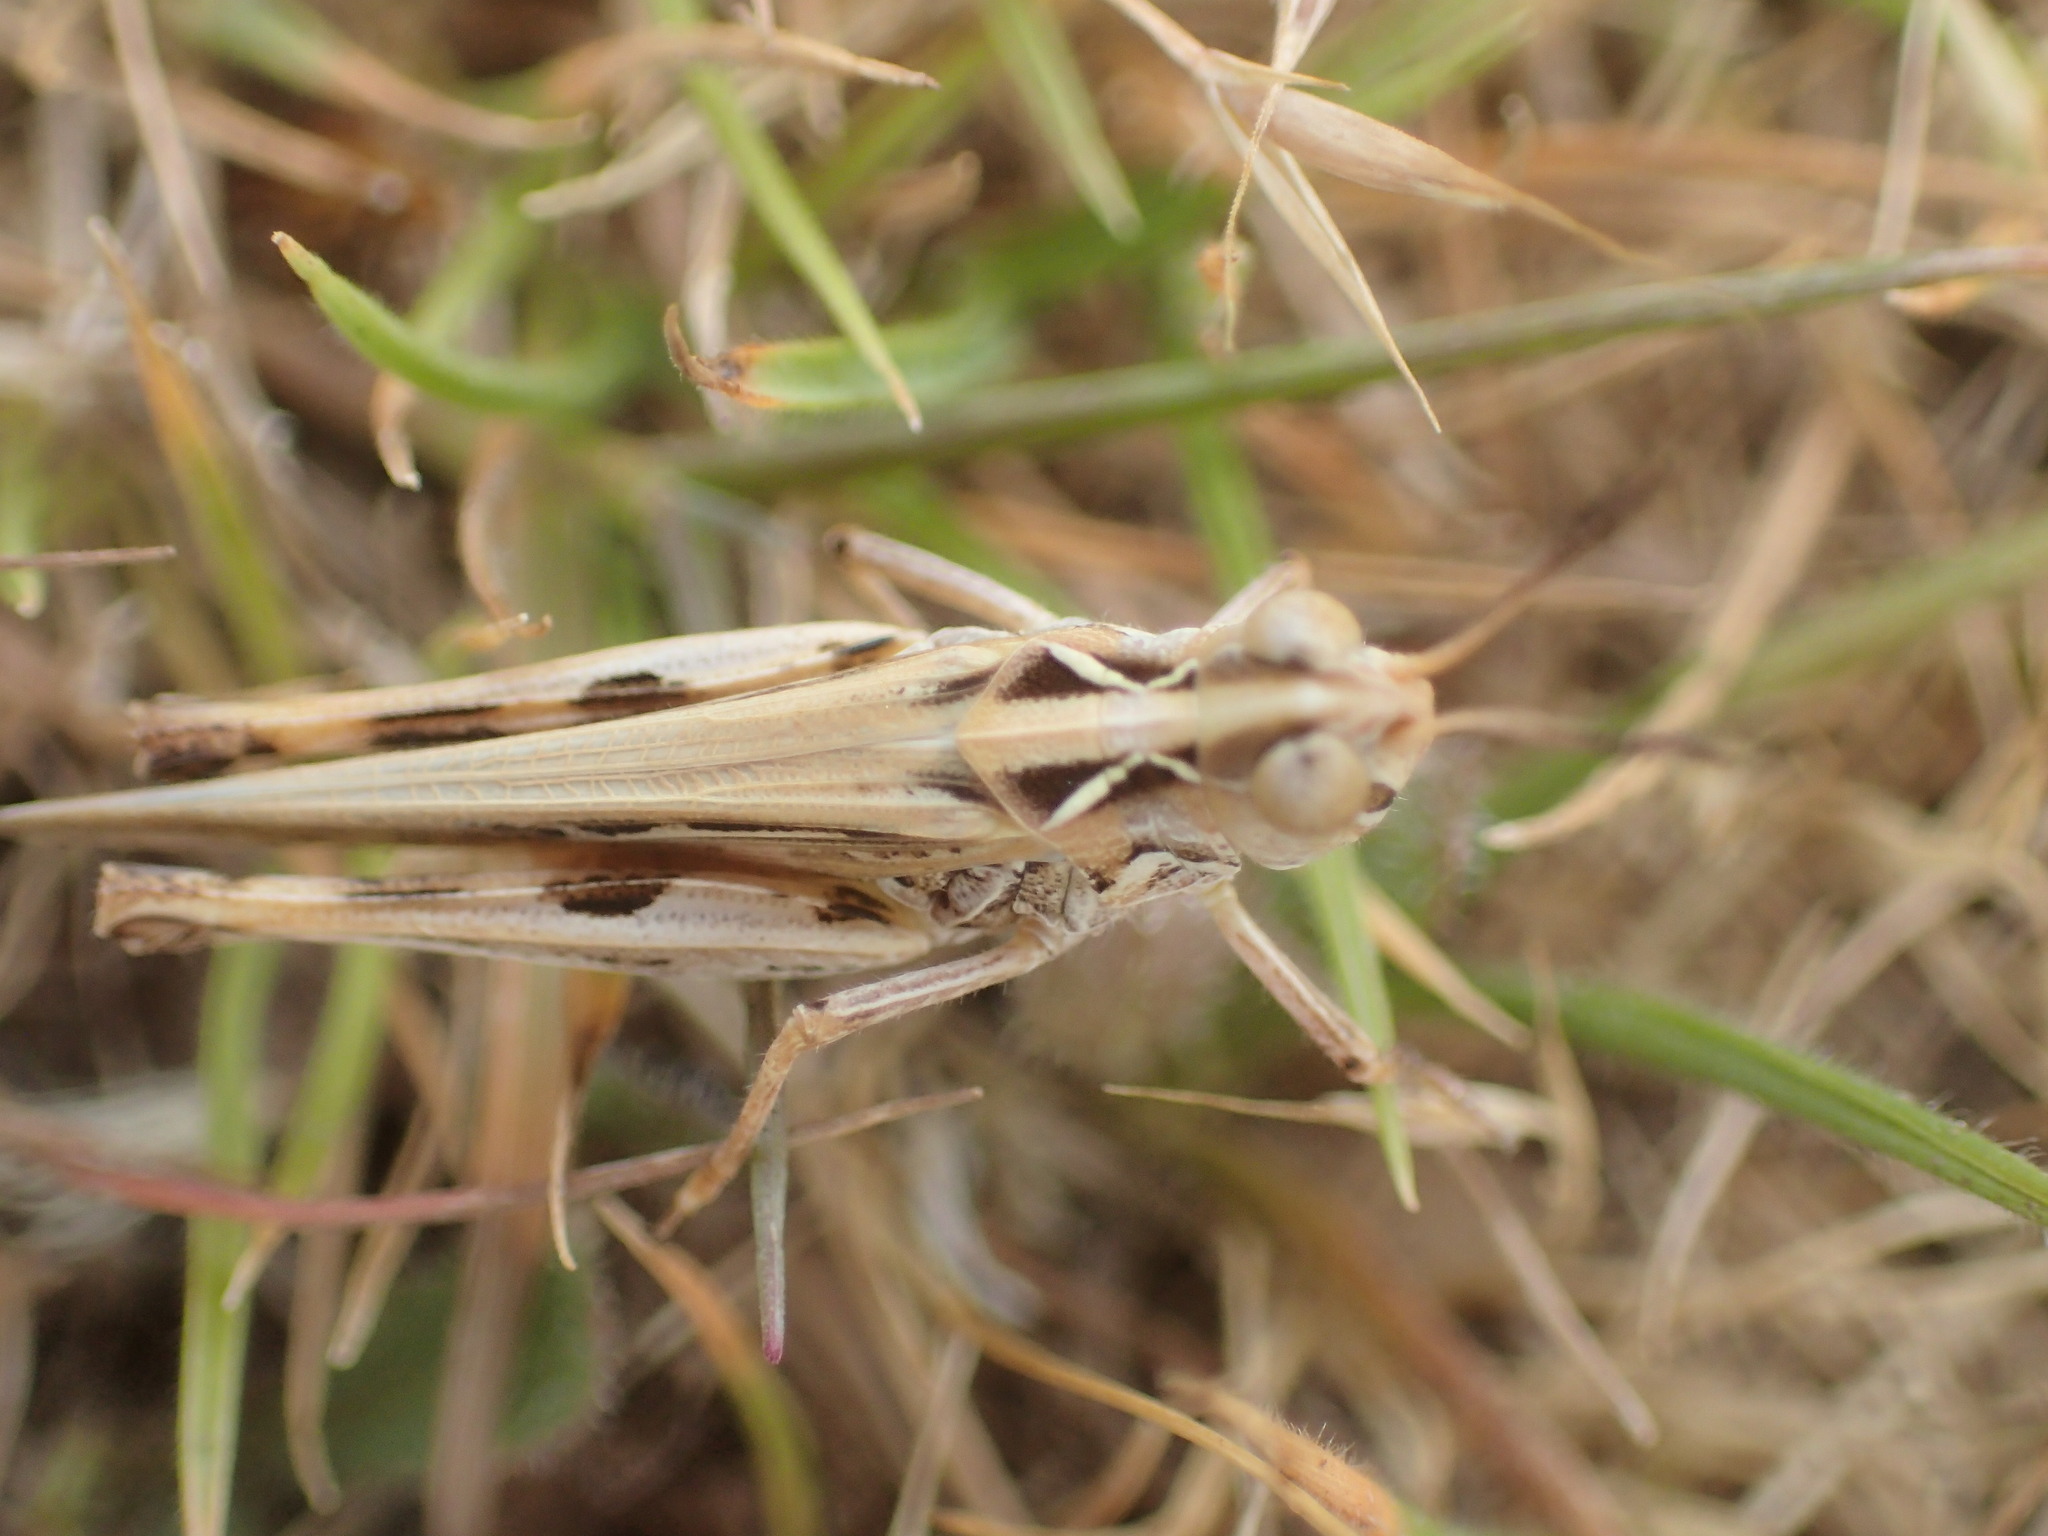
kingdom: Animalia
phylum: Arthropoda
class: Insecta
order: Orthoptera
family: Acrididae
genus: Austroicetes
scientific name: Austroicetes vulgaris
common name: Southeastern austroicetes
